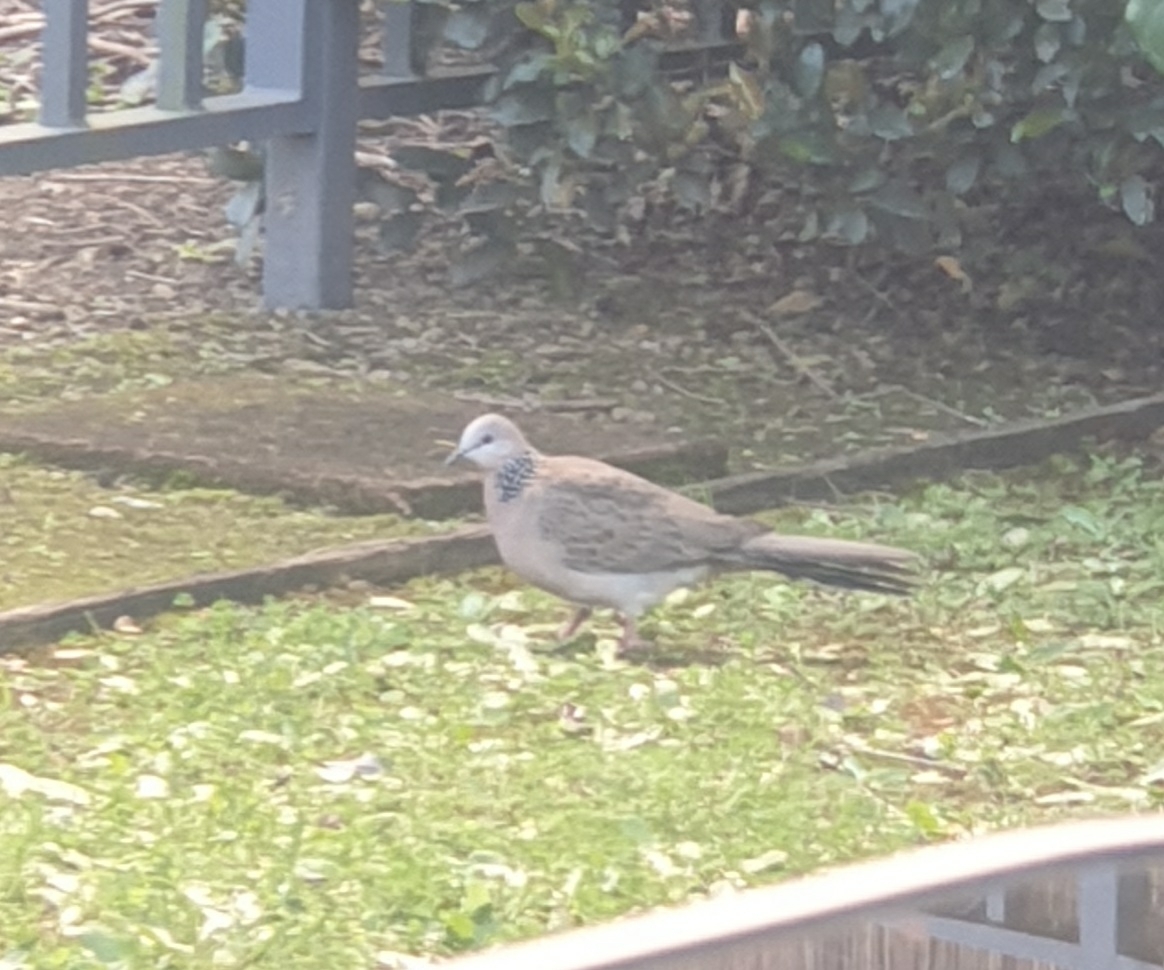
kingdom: Animalia
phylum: Chordata
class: Aves
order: Columbiformes
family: Columbidae
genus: Spilopelia
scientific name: Spilopelia chinensis
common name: Spotted dove
